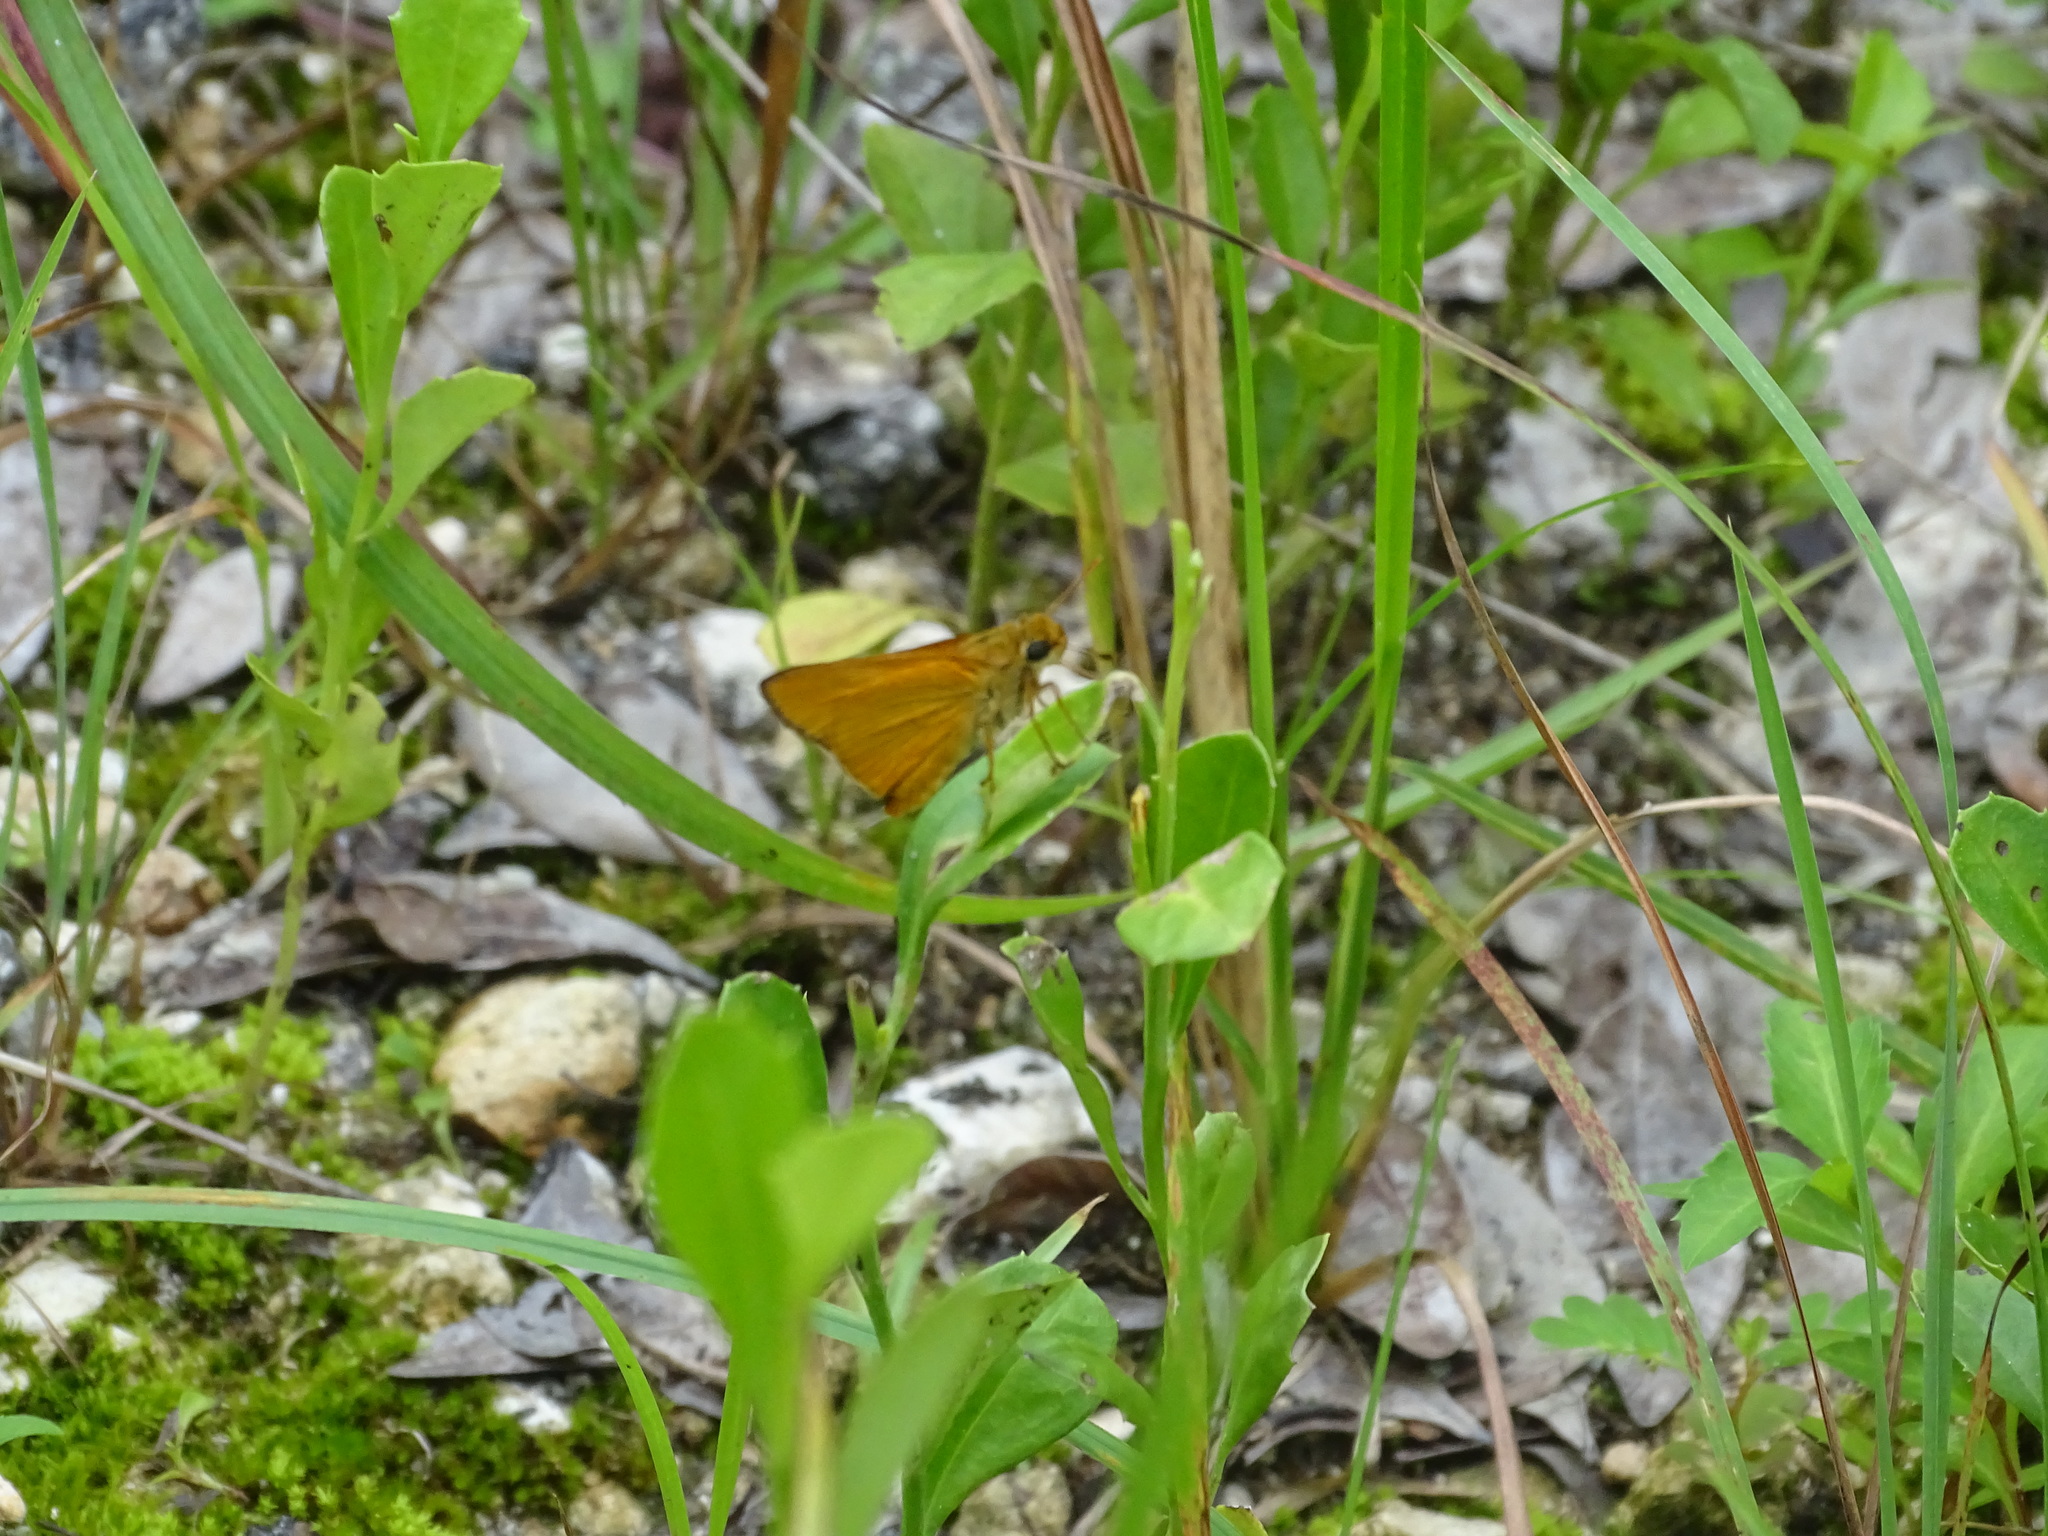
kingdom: Animalia
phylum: Arthropoda
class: Insecta
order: Lepidoptera
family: Hesperiidae
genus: Atrytone
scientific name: Atrytone delaware
